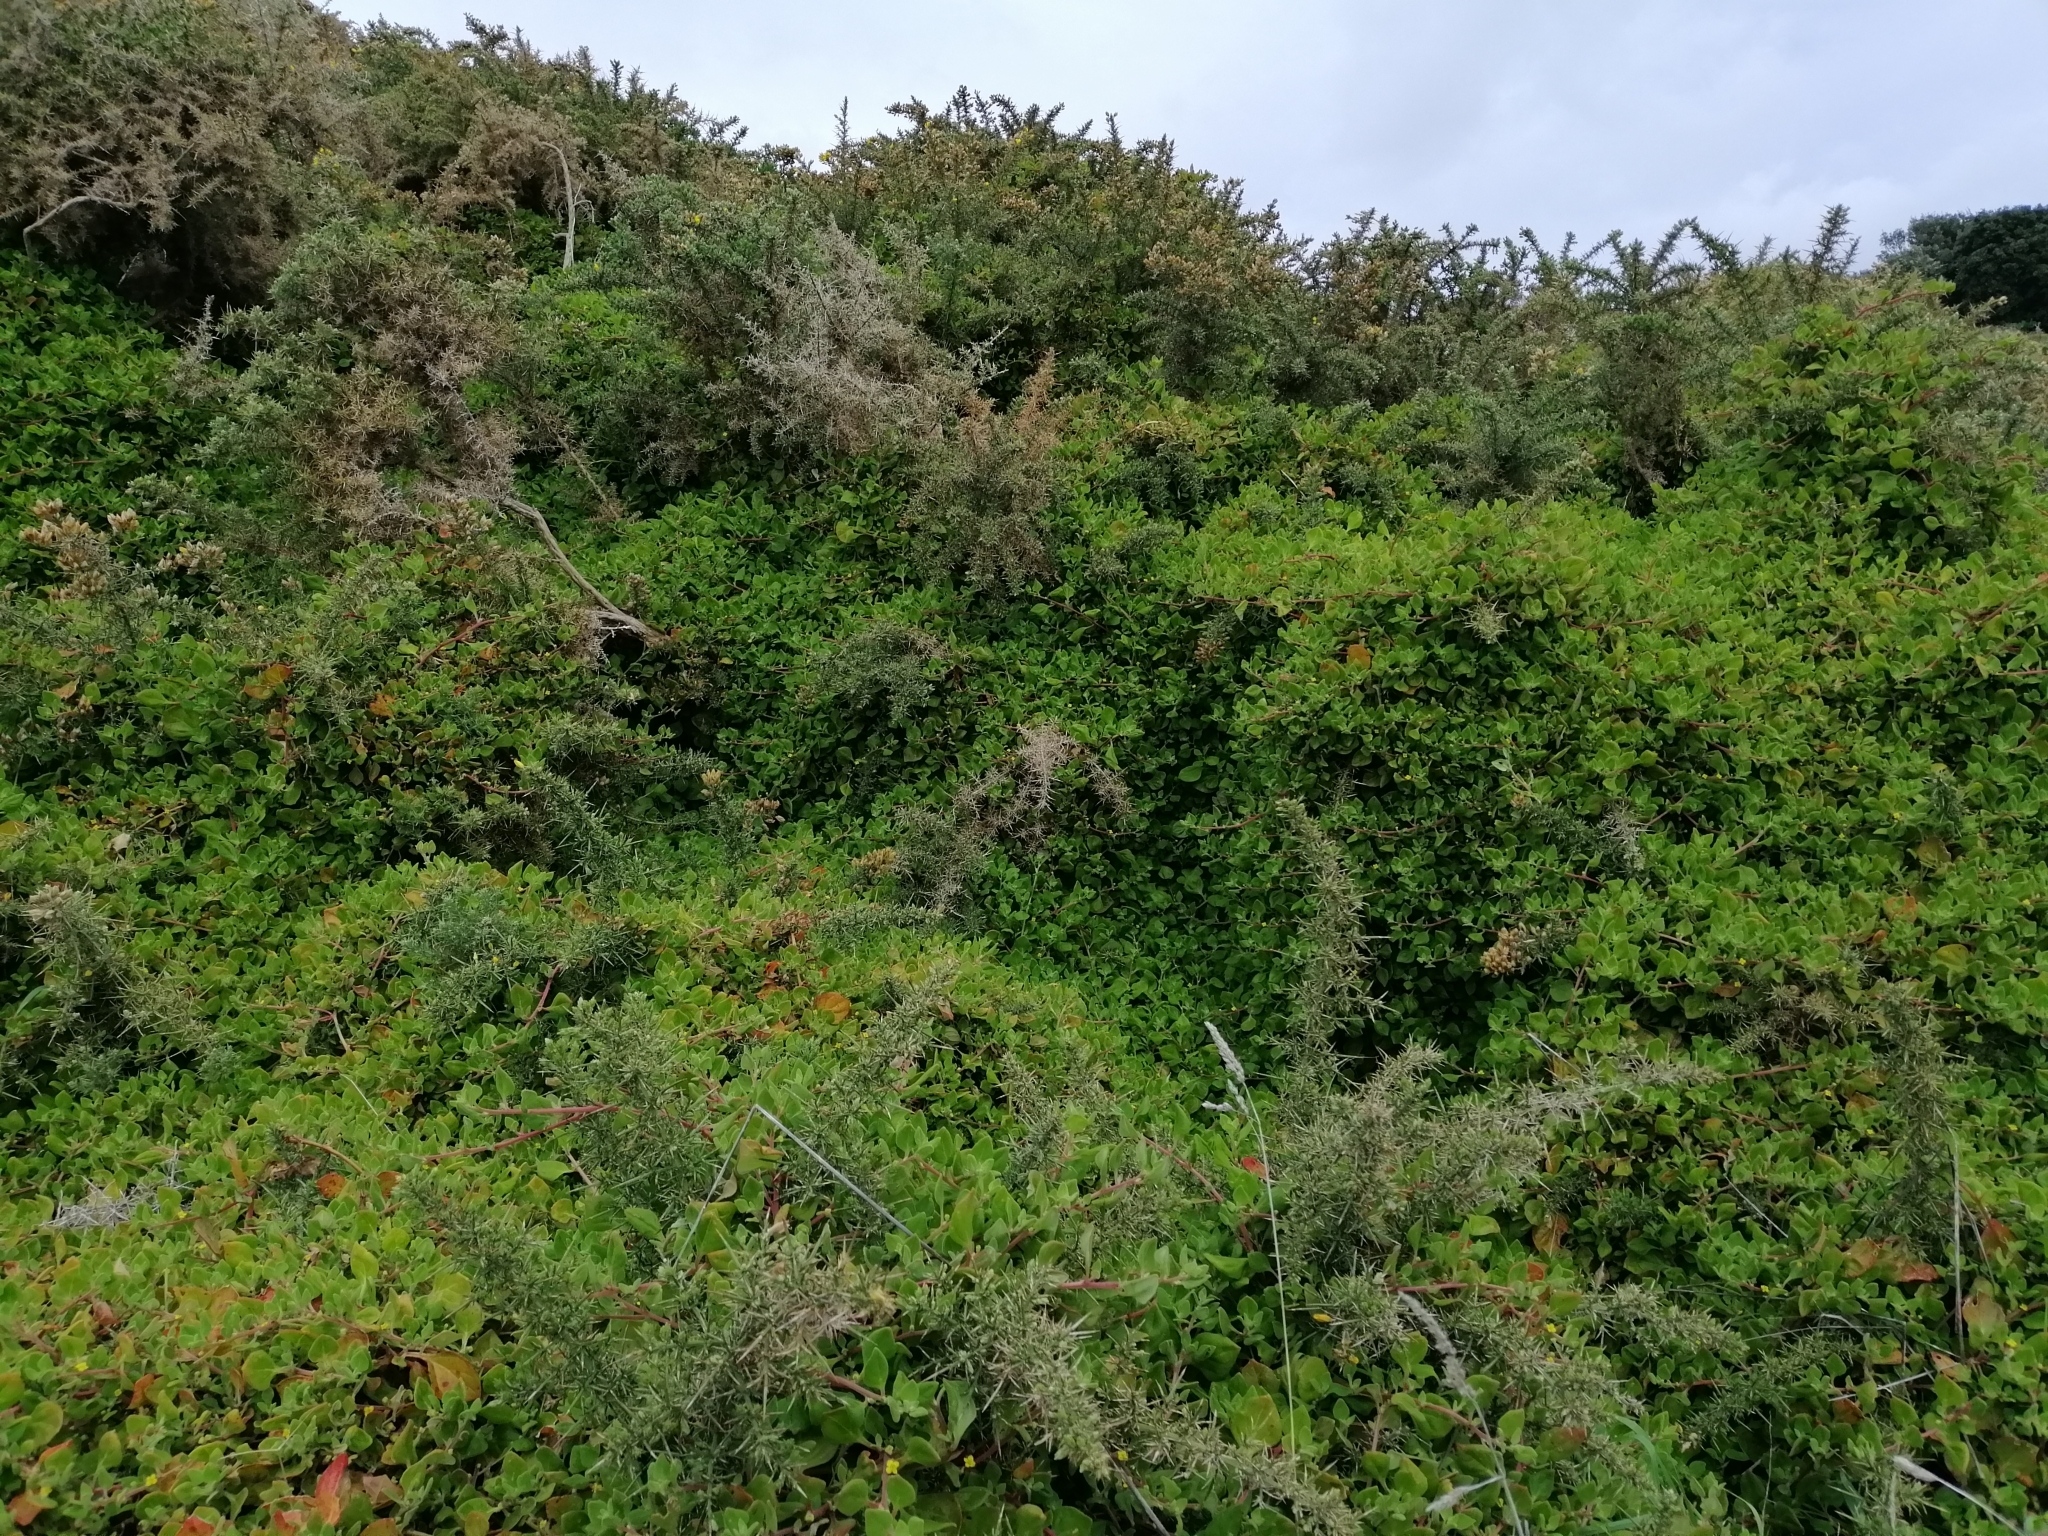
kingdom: Plantae
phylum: Tracheophyta
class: Magnoliopsida
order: Caryophyllales
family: Aizoaceae
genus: Tetragonia
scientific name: Tetragonia implexicoma
